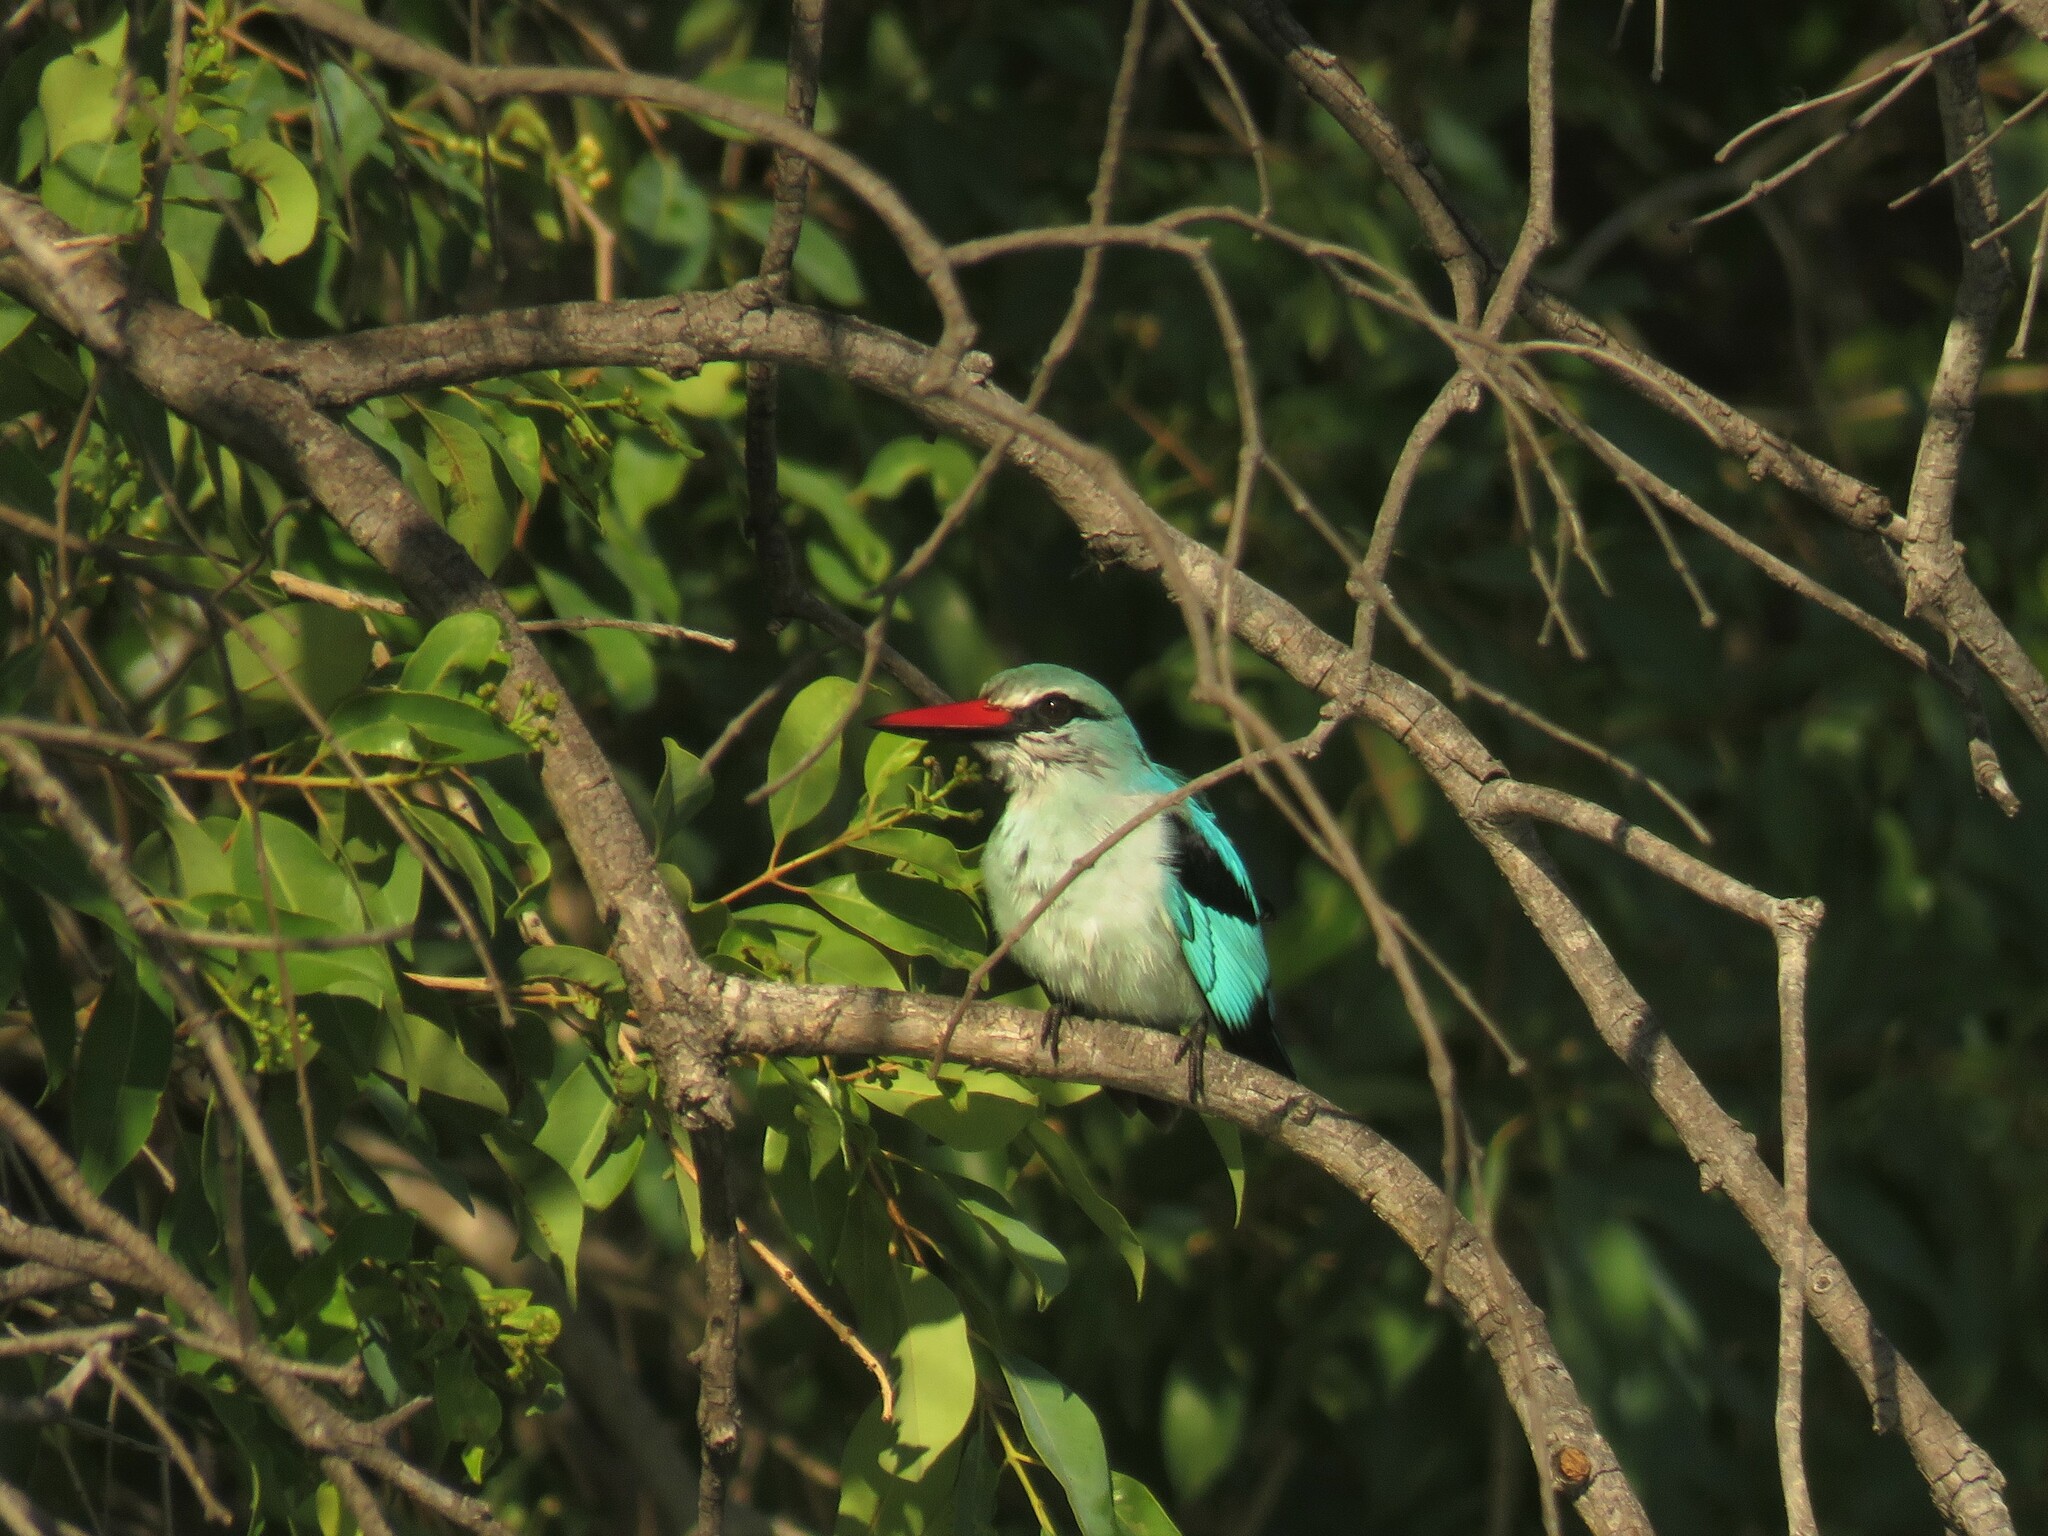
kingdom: Animalia
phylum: Chordata
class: Aves
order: Coraciiformes
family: Alcedinidae
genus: Halcyon
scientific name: Halcyon senegalensis
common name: Woodland kingfisher
